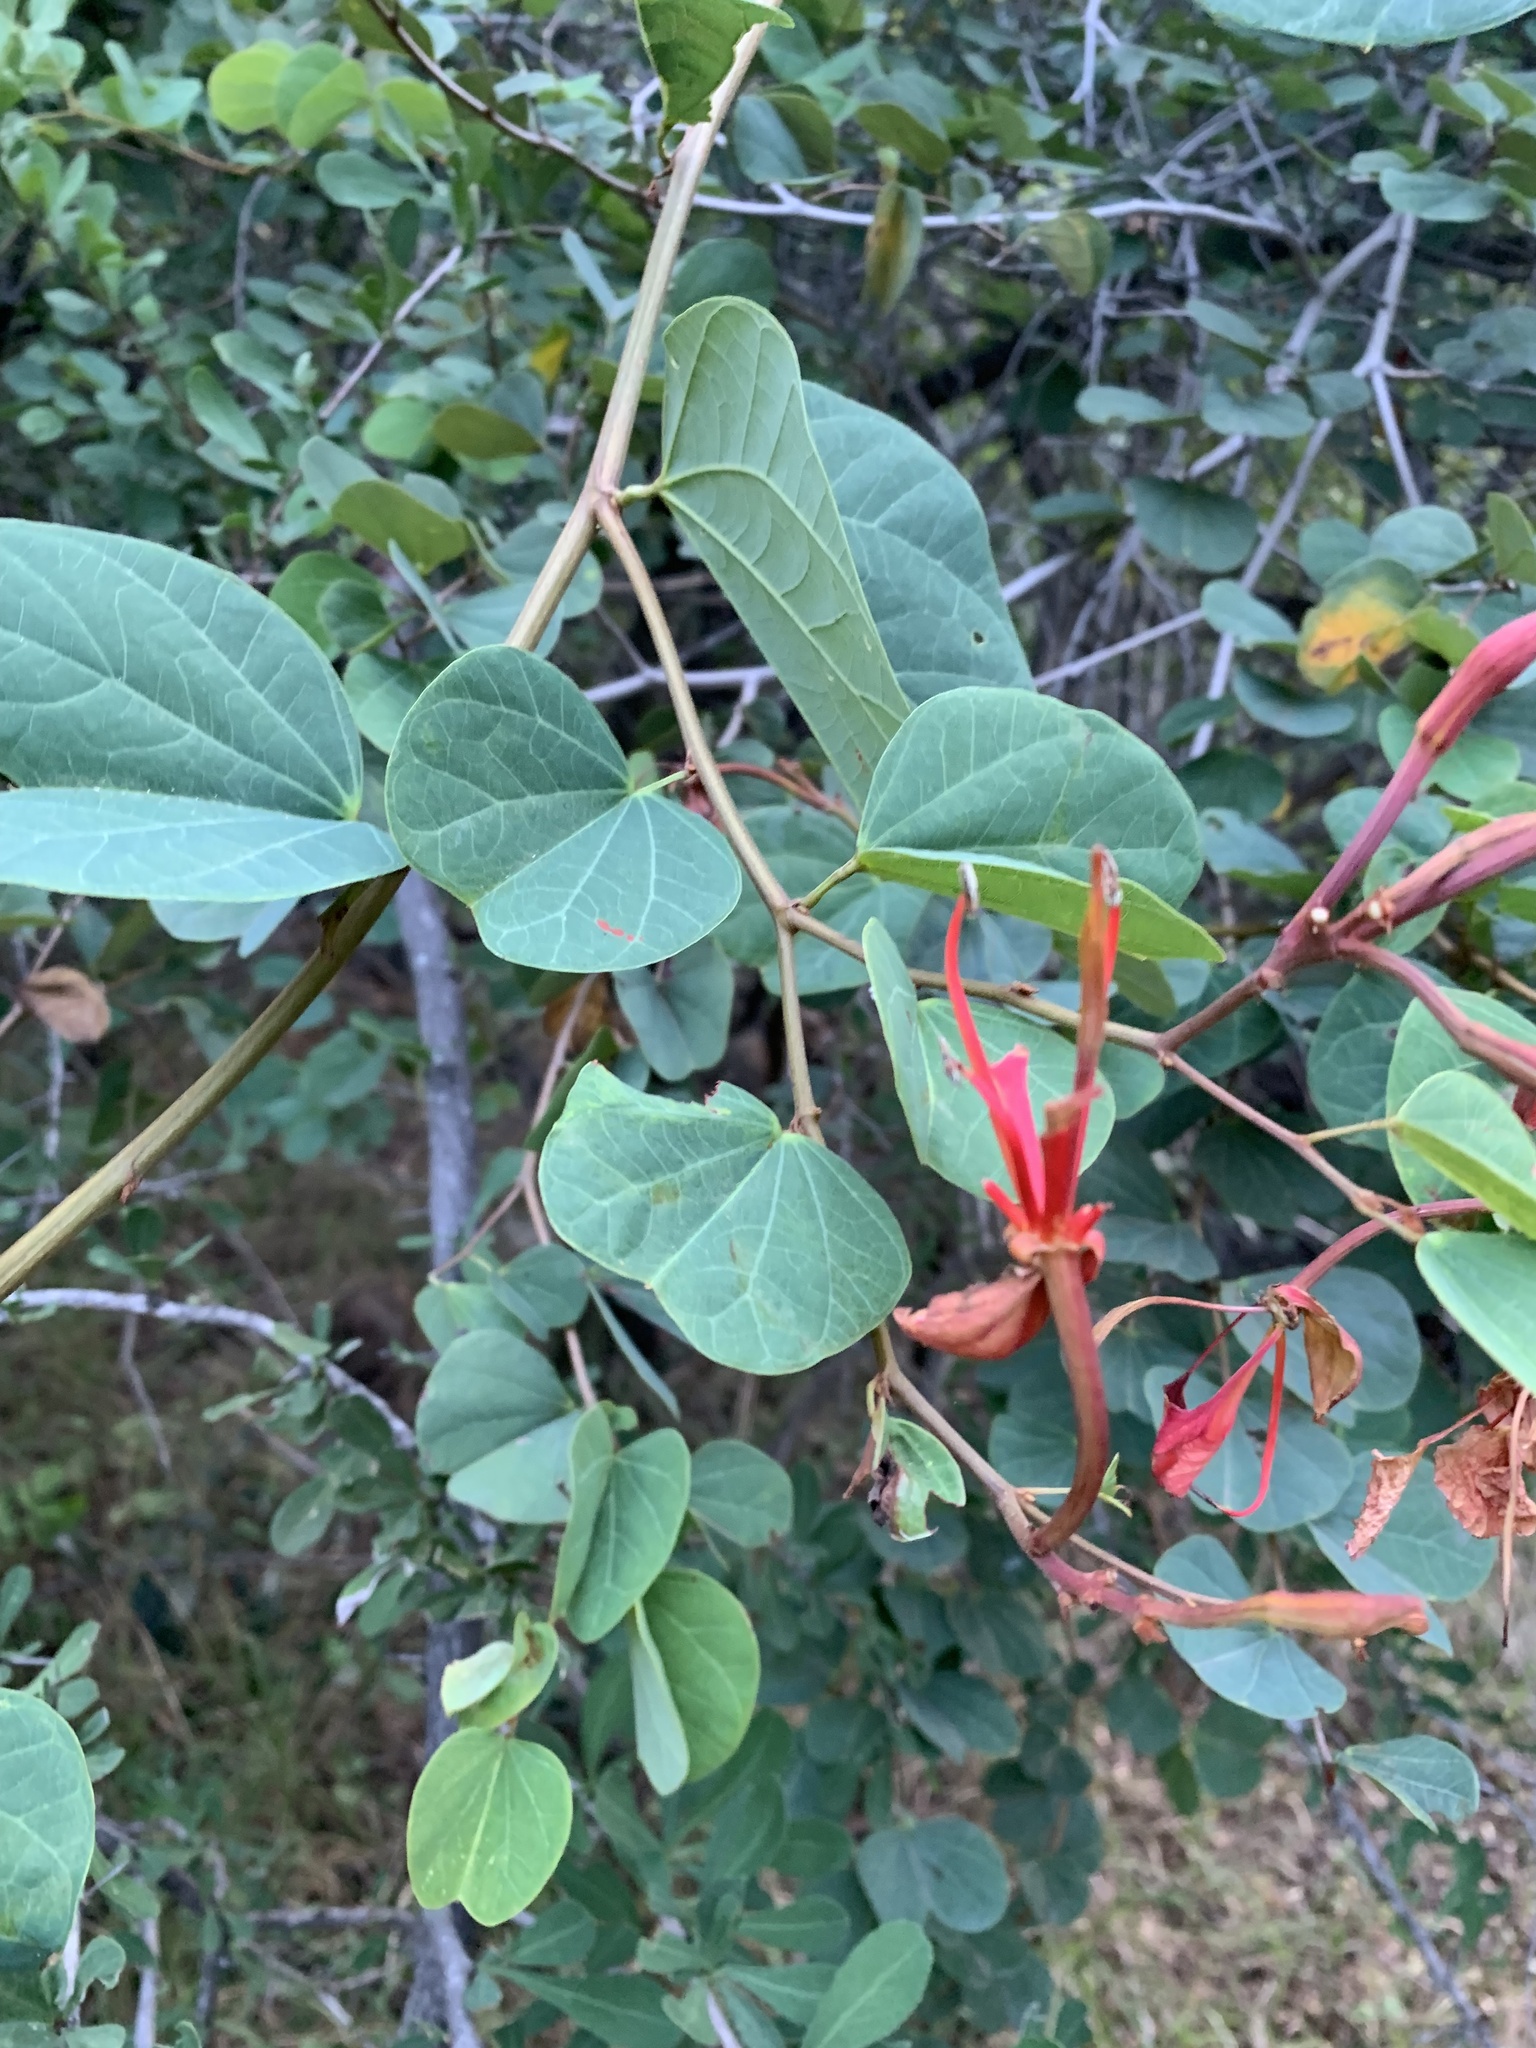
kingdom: Plantae
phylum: Tracheophyta
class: Magnoliopsida
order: Fabales
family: Fabaceae
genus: Bauhinia
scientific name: Bauhinia galpinii
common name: African plume
